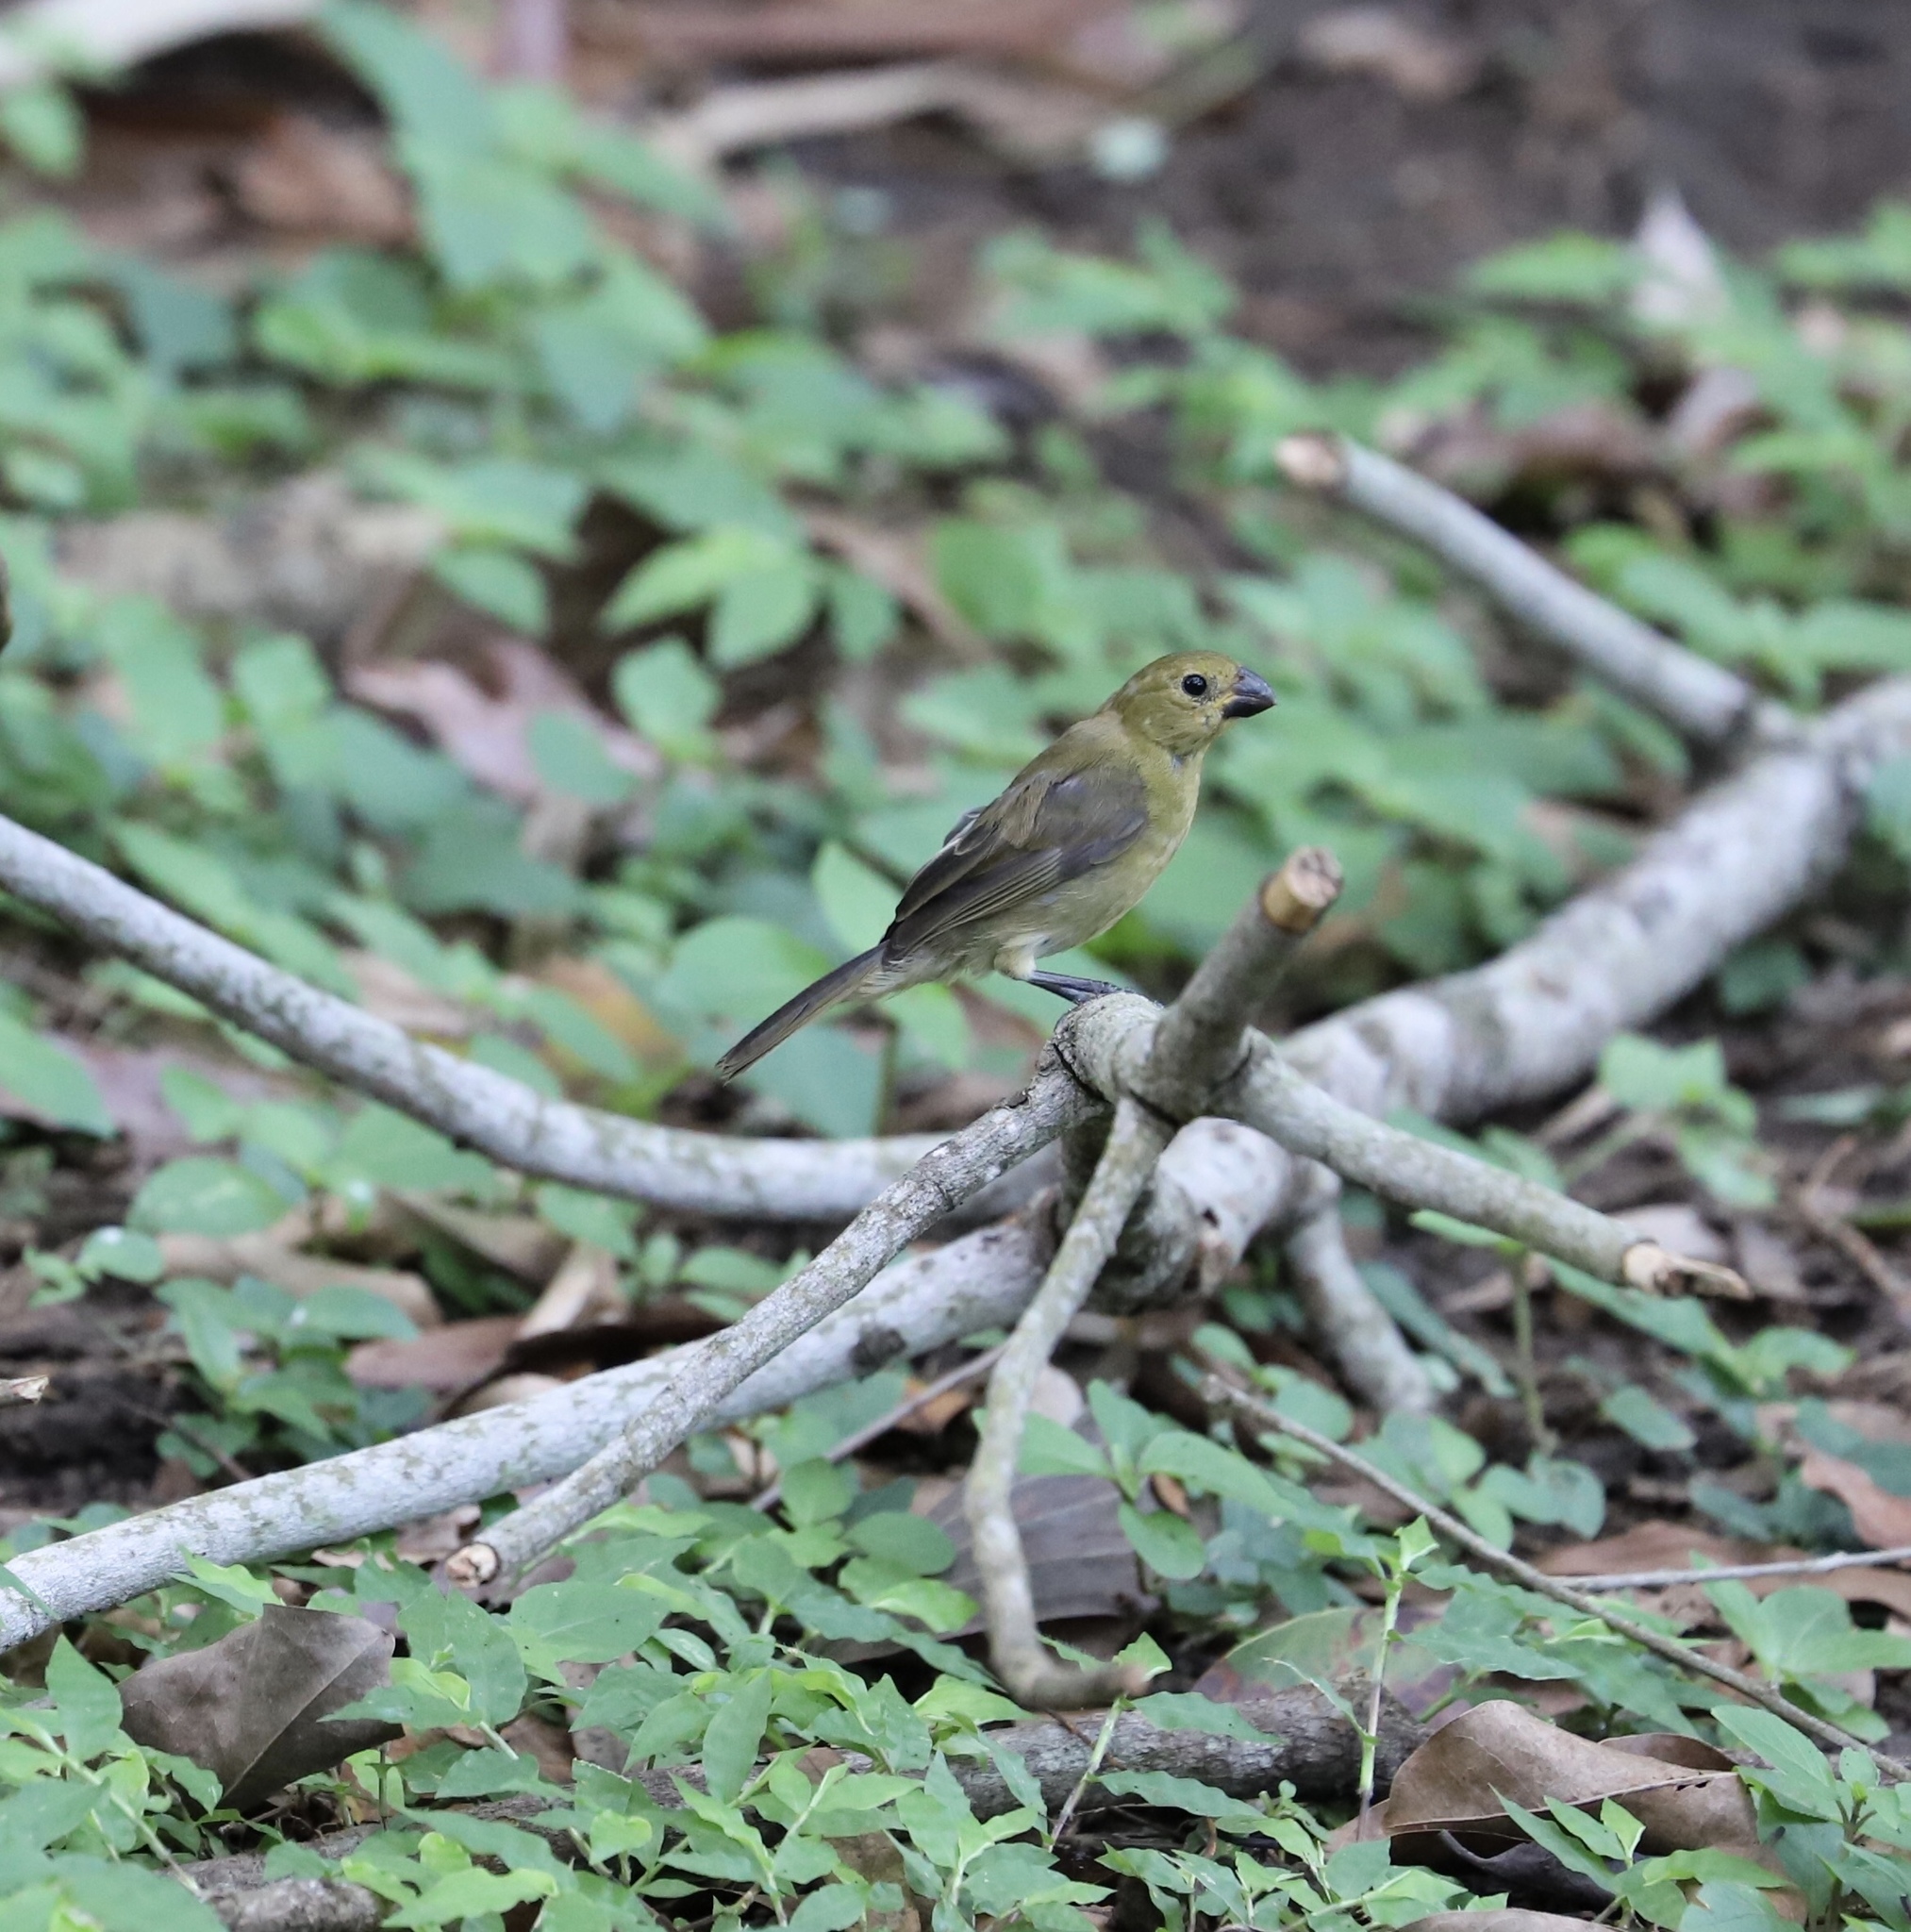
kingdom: Animalia
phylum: Chordata
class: Aves
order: Passeriformes
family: Thraupidae
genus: Sporophila
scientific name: Sporophila corvina
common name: Variable seedeater
